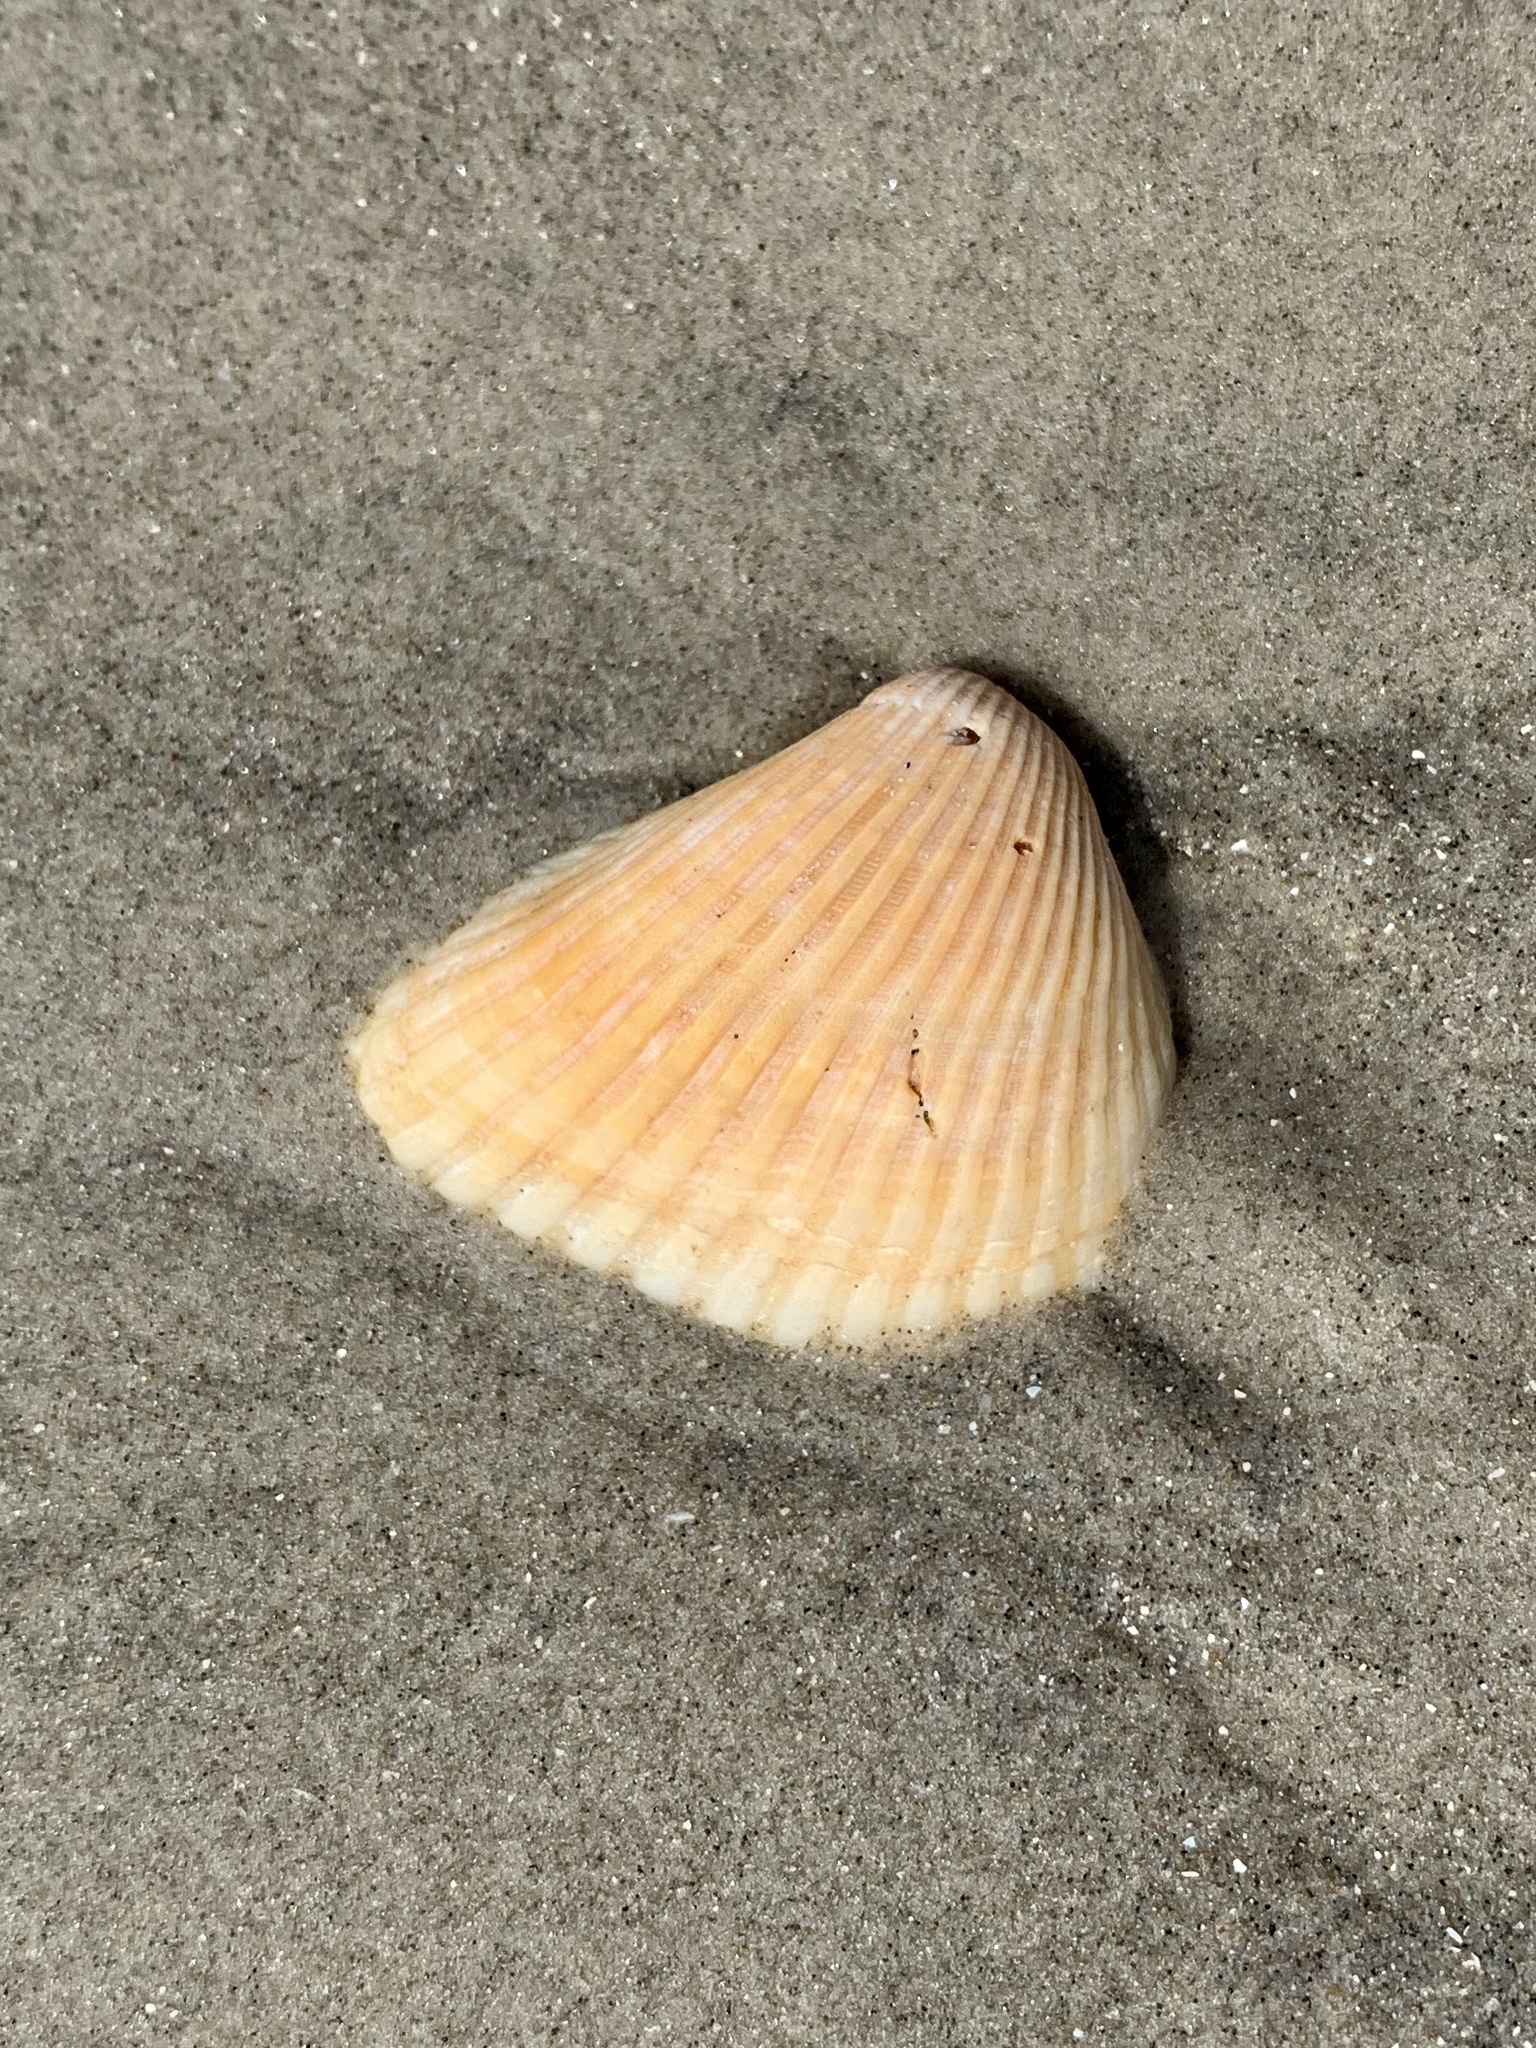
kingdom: Animalia
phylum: Mollusca
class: Bivalvia
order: Arcida
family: Noetiidae
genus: Noetia
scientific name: Noetia ponderosa
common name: Ponderous ark
